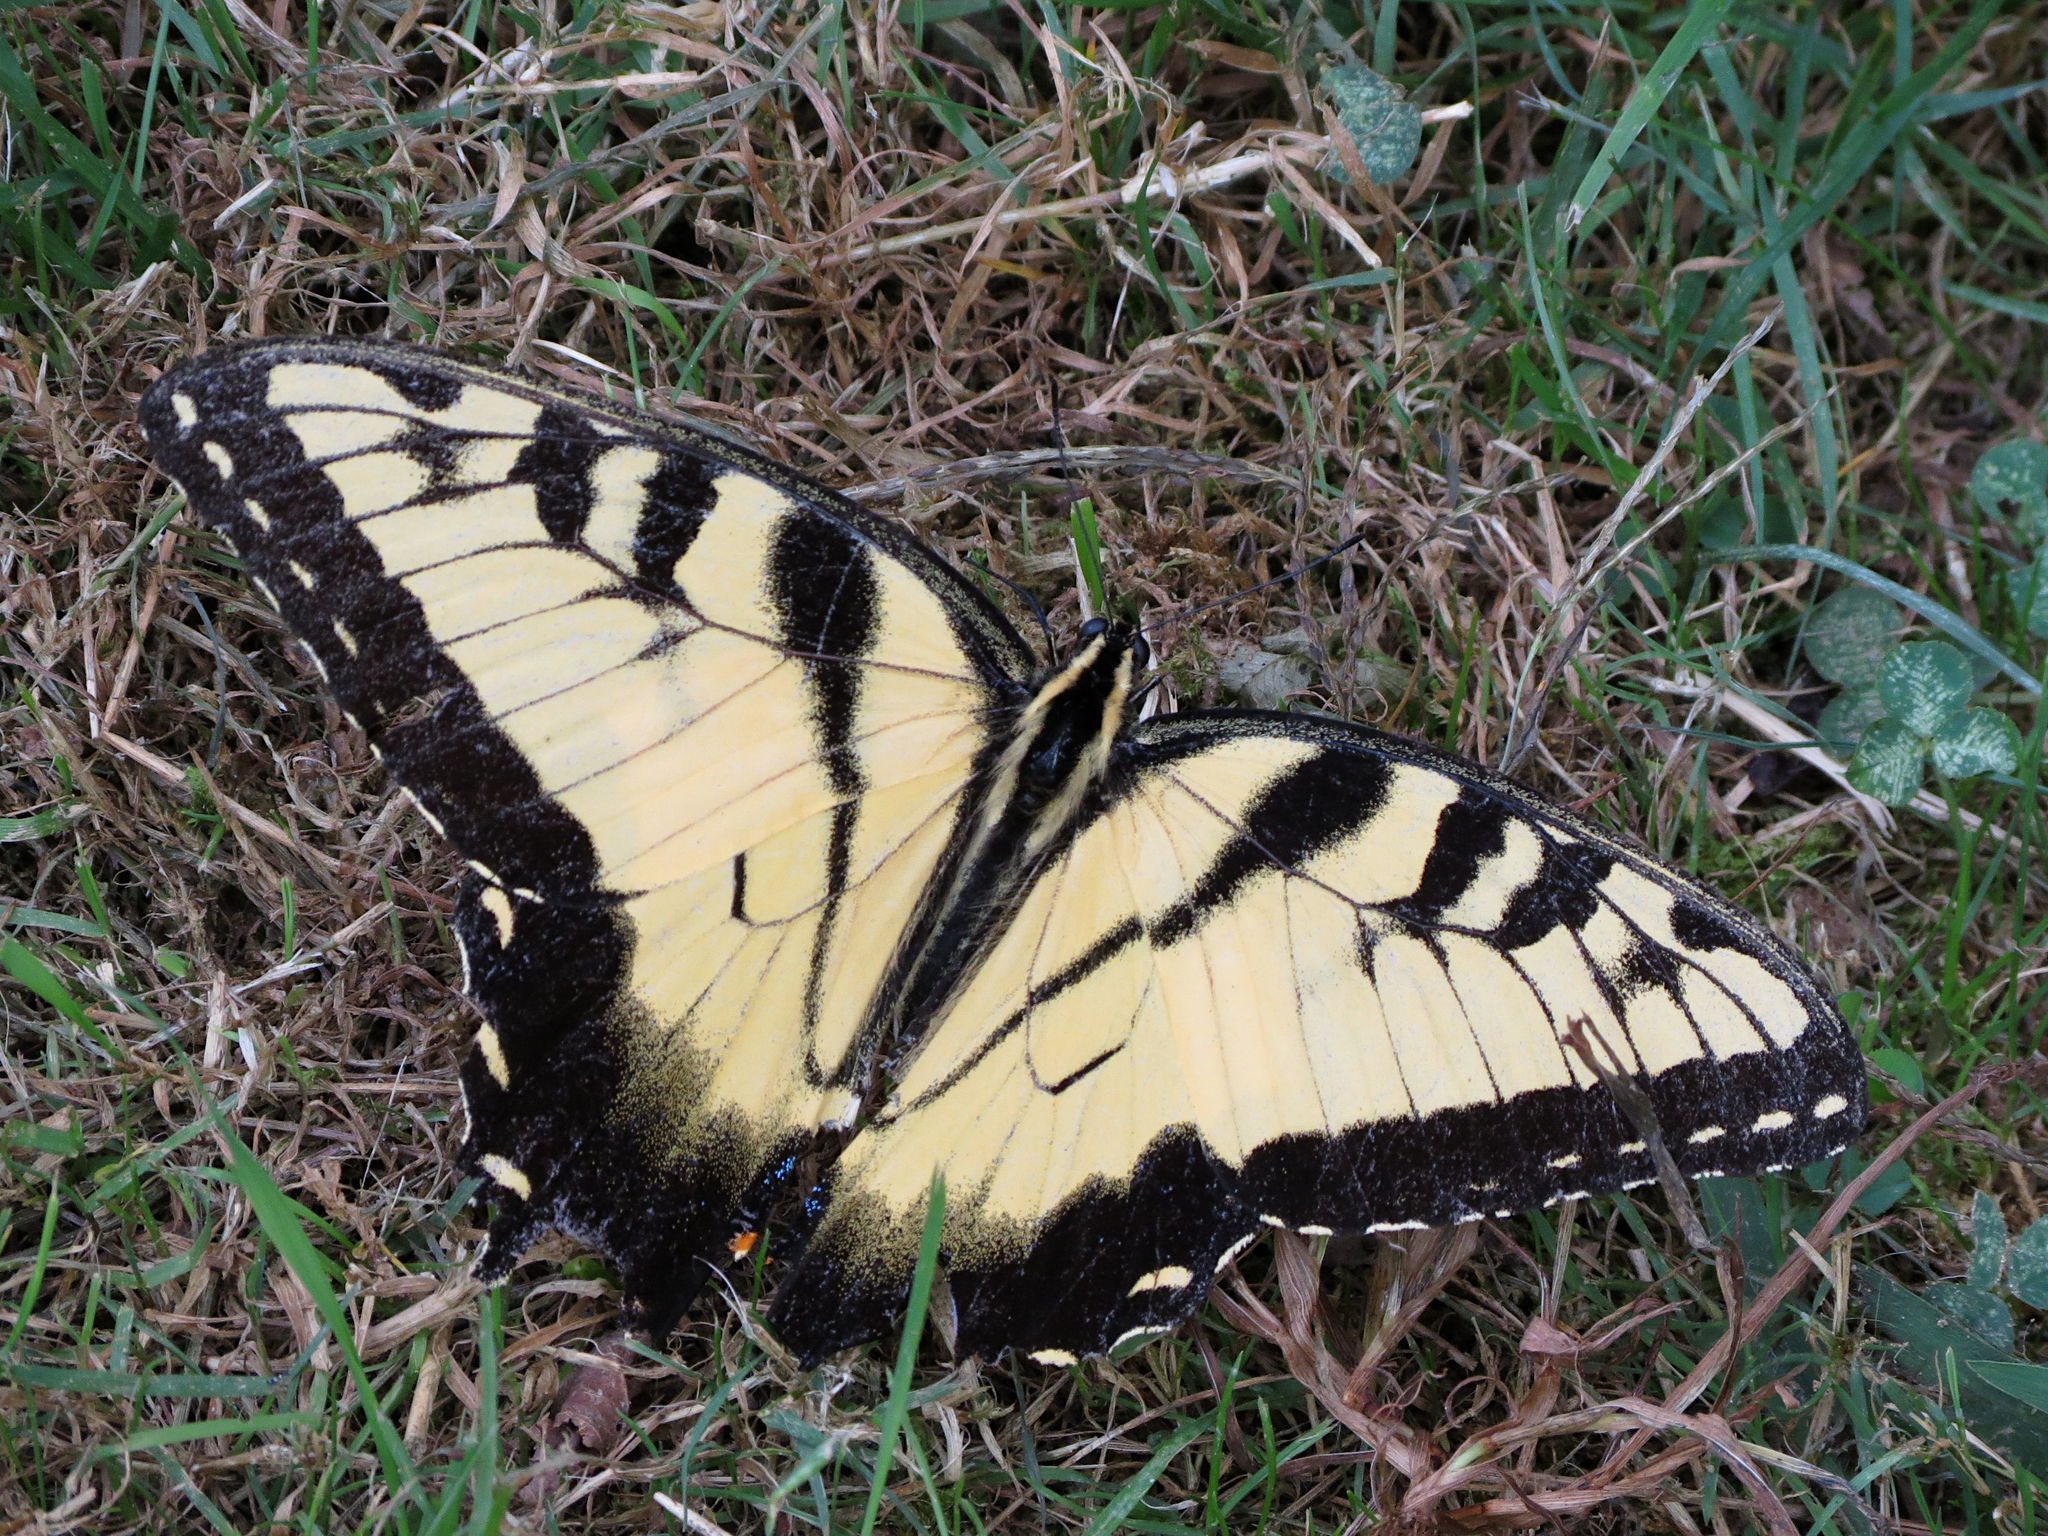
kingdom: Animalia
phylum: Arthropoda
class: Insecta
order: Lepidoptera
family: Papilionidae
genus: Papilio
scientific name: Papilio glaucus
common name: Tiger swallowtail
